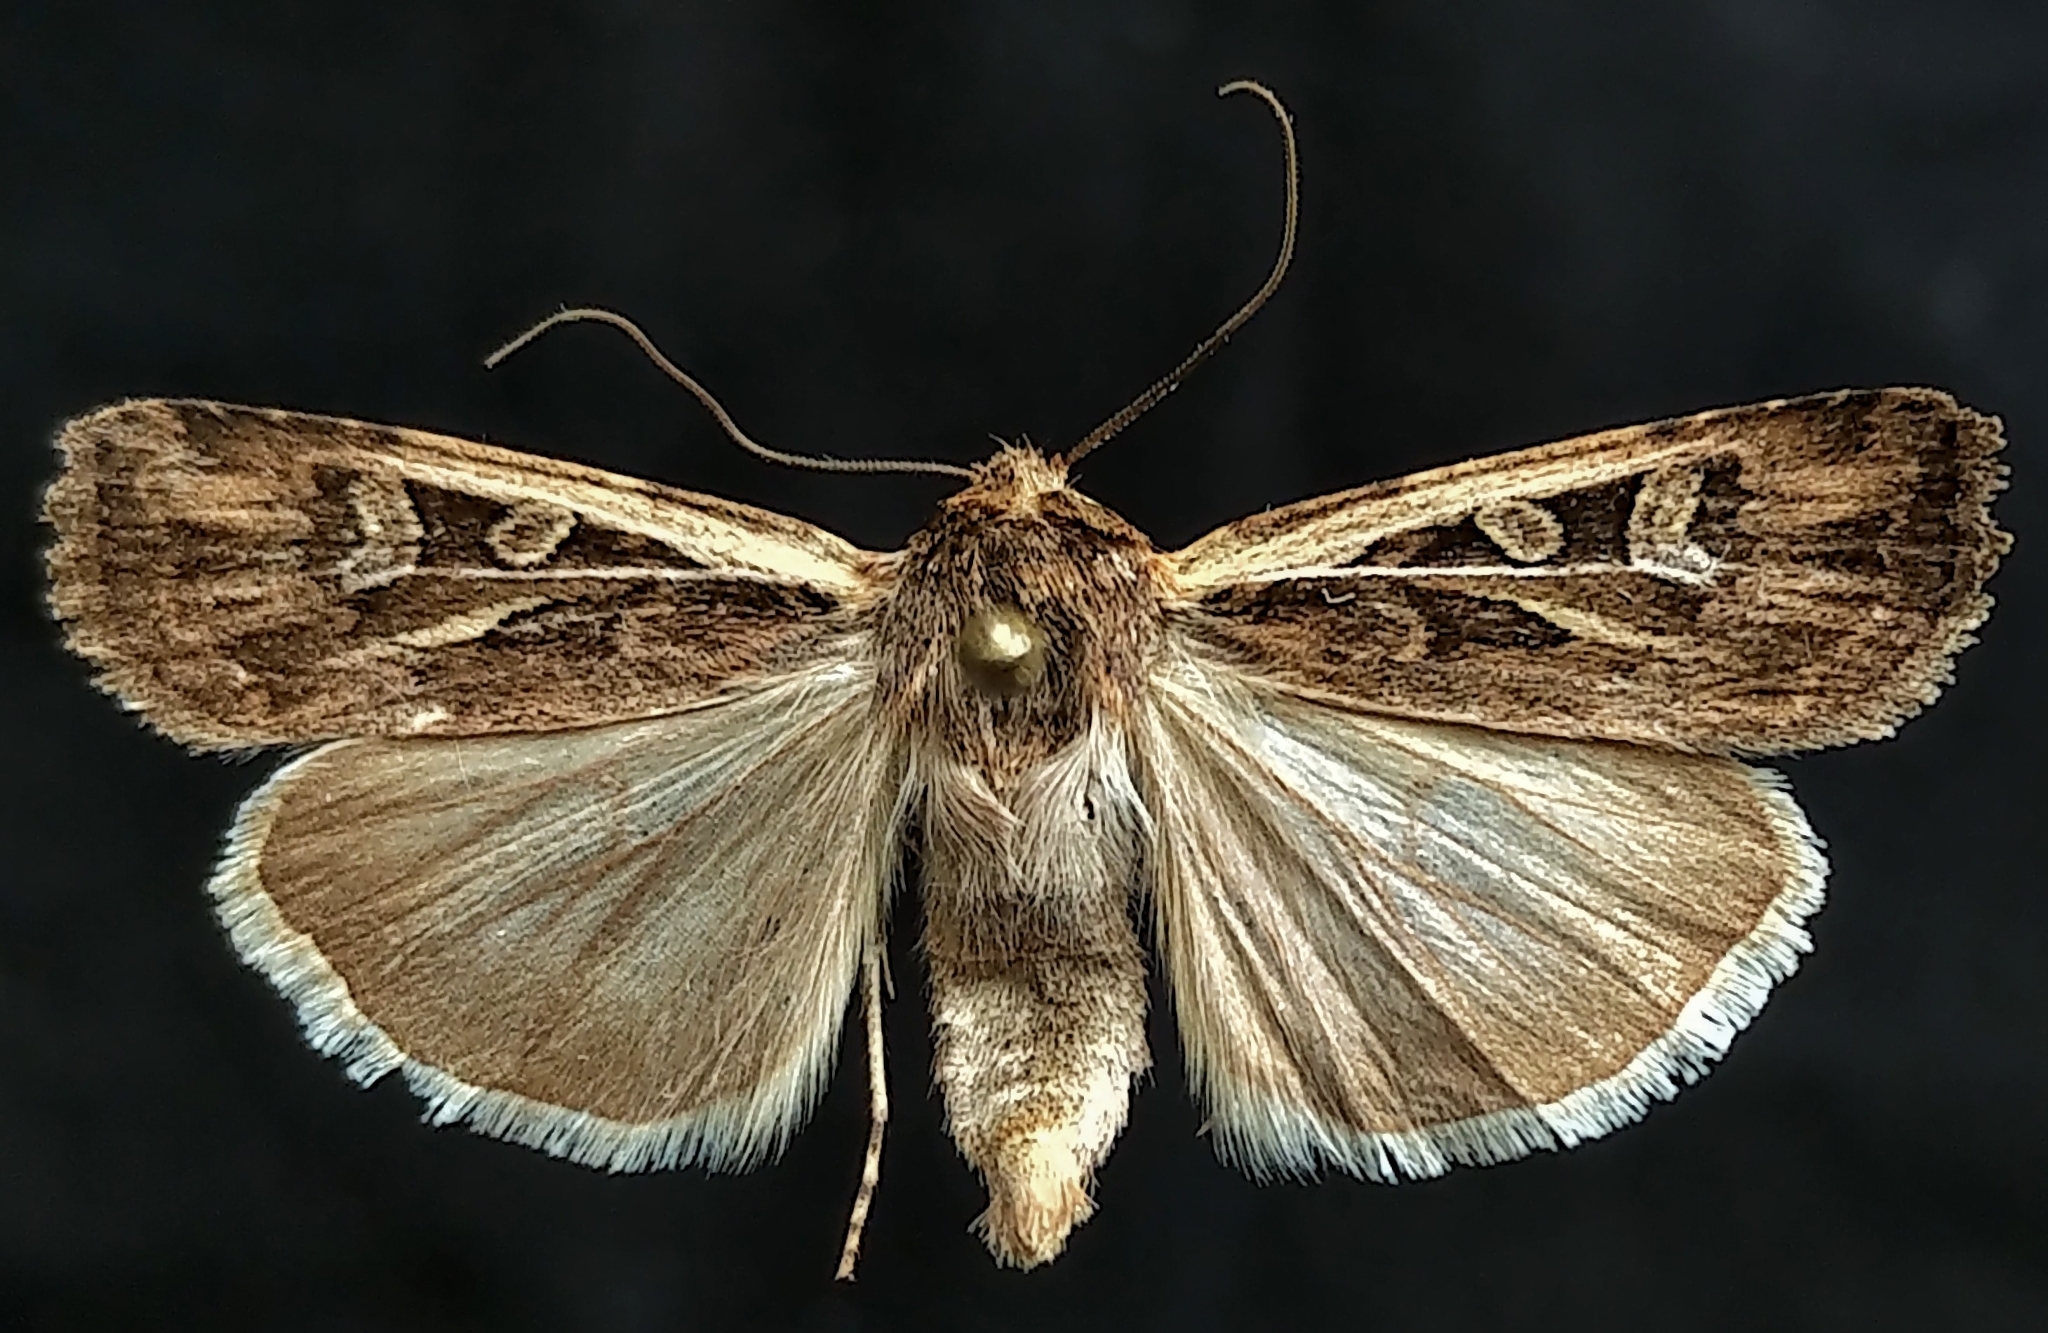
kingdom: Animalia
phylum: Arthropoda
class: Insecta
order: Lepidoptera
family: Noctuidae
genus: Euxoa
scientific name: Euxoa flavicollis
